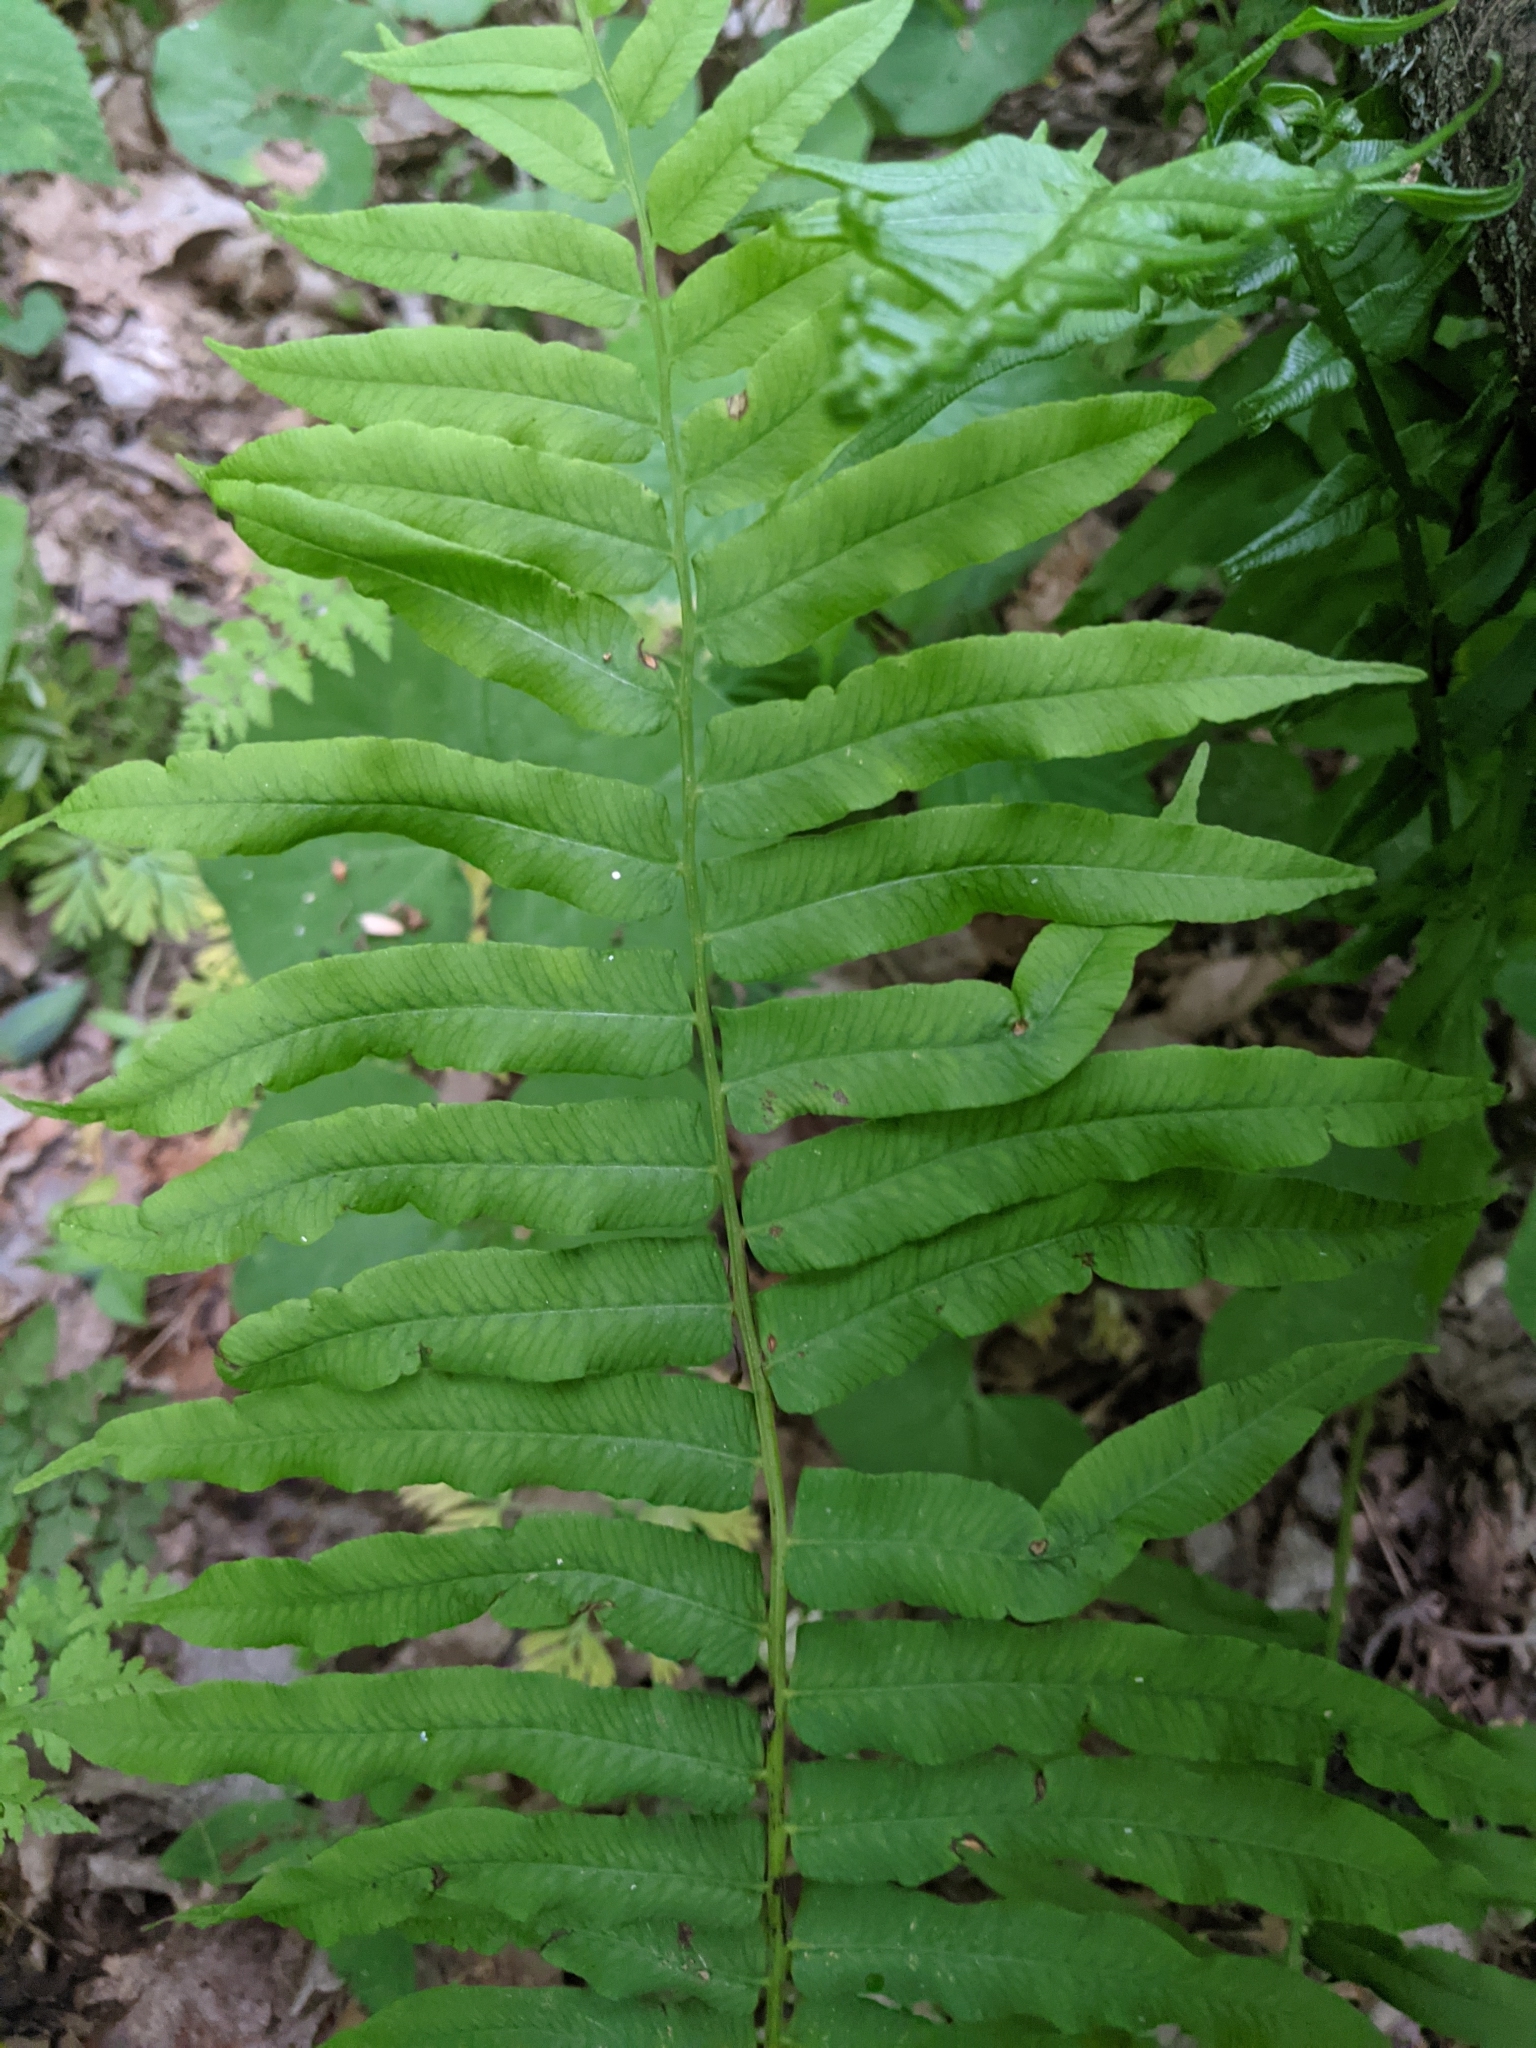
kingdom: Plantae
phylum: Tracheophyta
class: Polypodiopsida
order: Polypodiales
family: Diplaziopsidaceae
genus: Homalosorus
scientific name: Homalosorus pycnocarpos
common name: Glade fern
